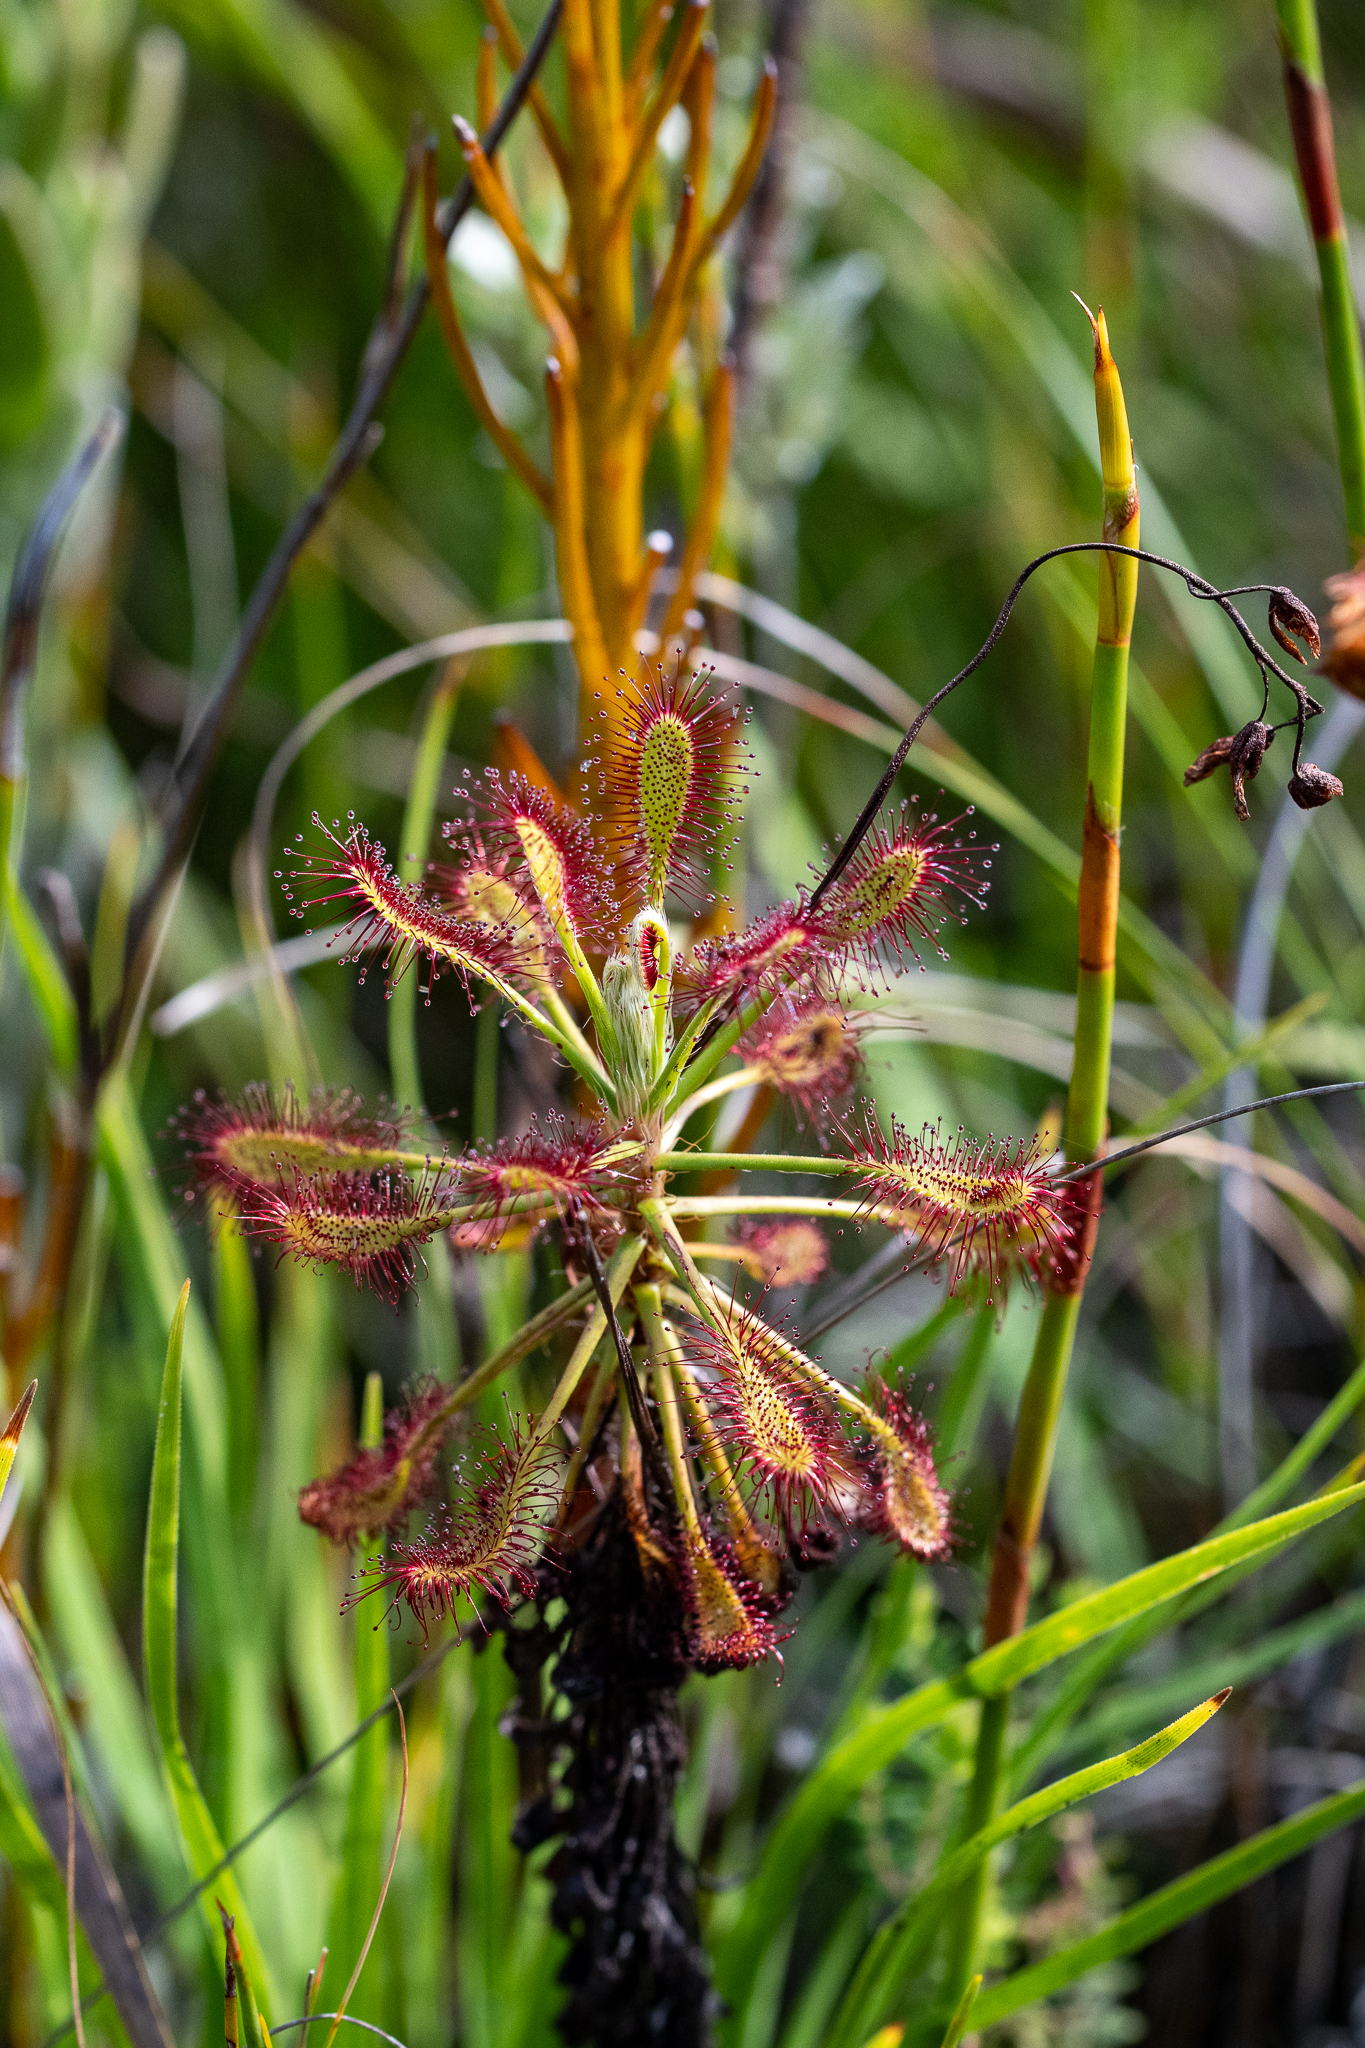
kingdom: Plantae
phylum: Tracheophyta
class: Magnoliopsida
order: Caryophyllales
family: Droseraceae
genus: Drosera
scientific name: Drosera glabripes
